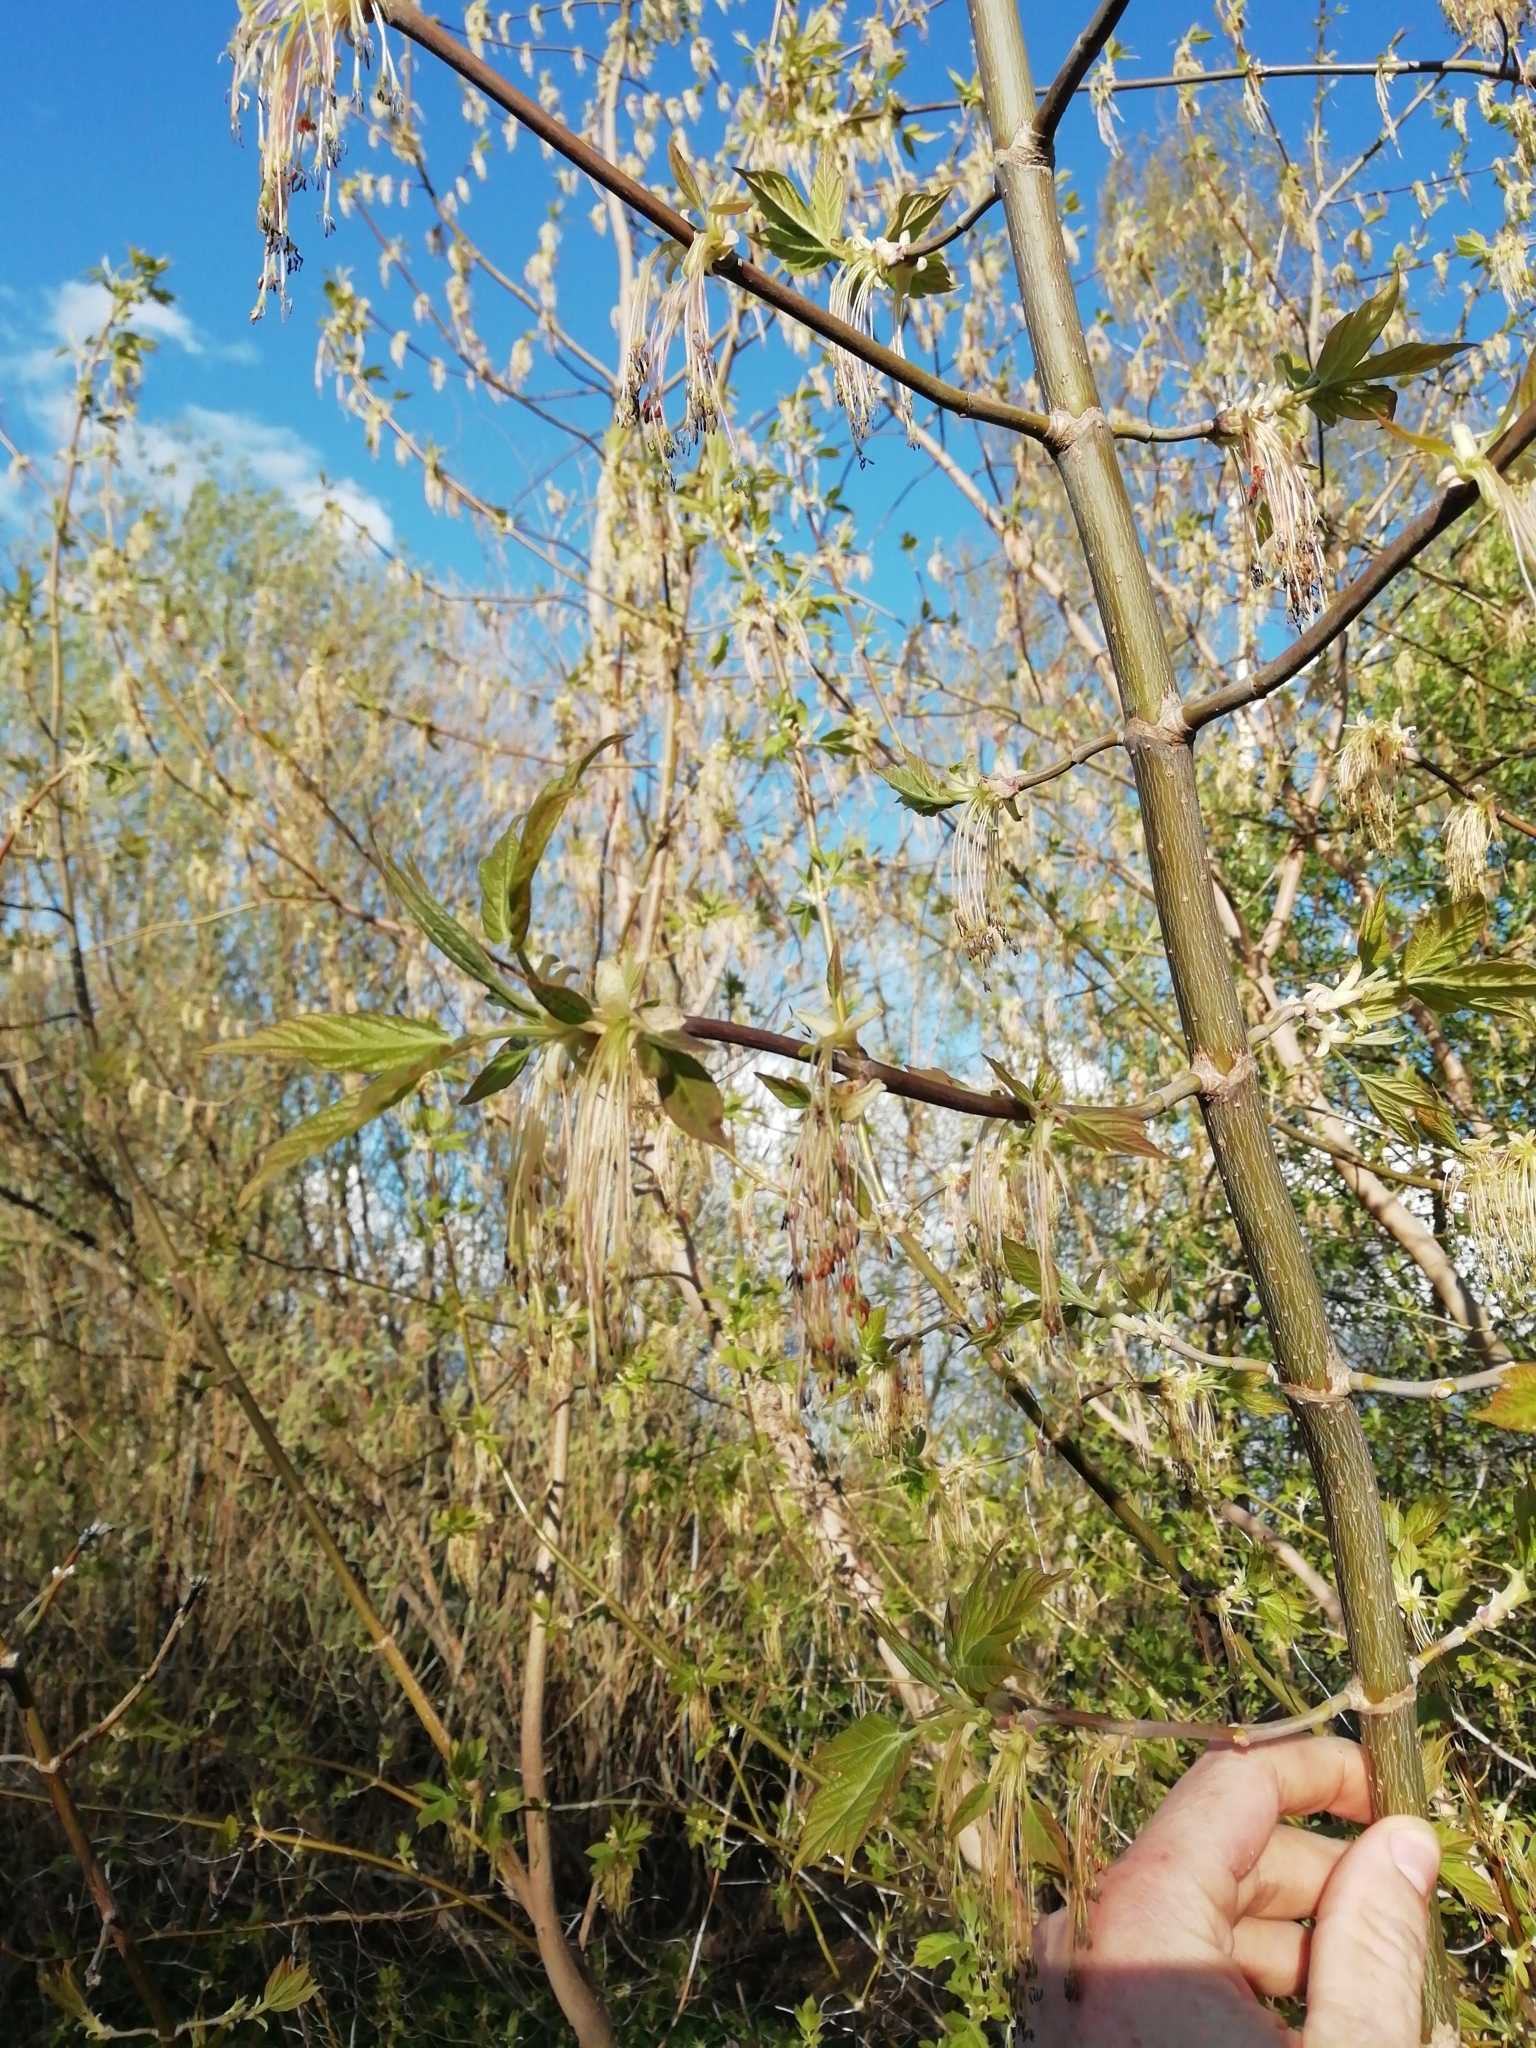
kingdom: Plantae
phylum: Tracheophyta
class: Magnoliopsida
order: Sapindales
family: Sapindaceae
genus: Acer
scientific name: Acer negundo
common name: Ashleaf maple
